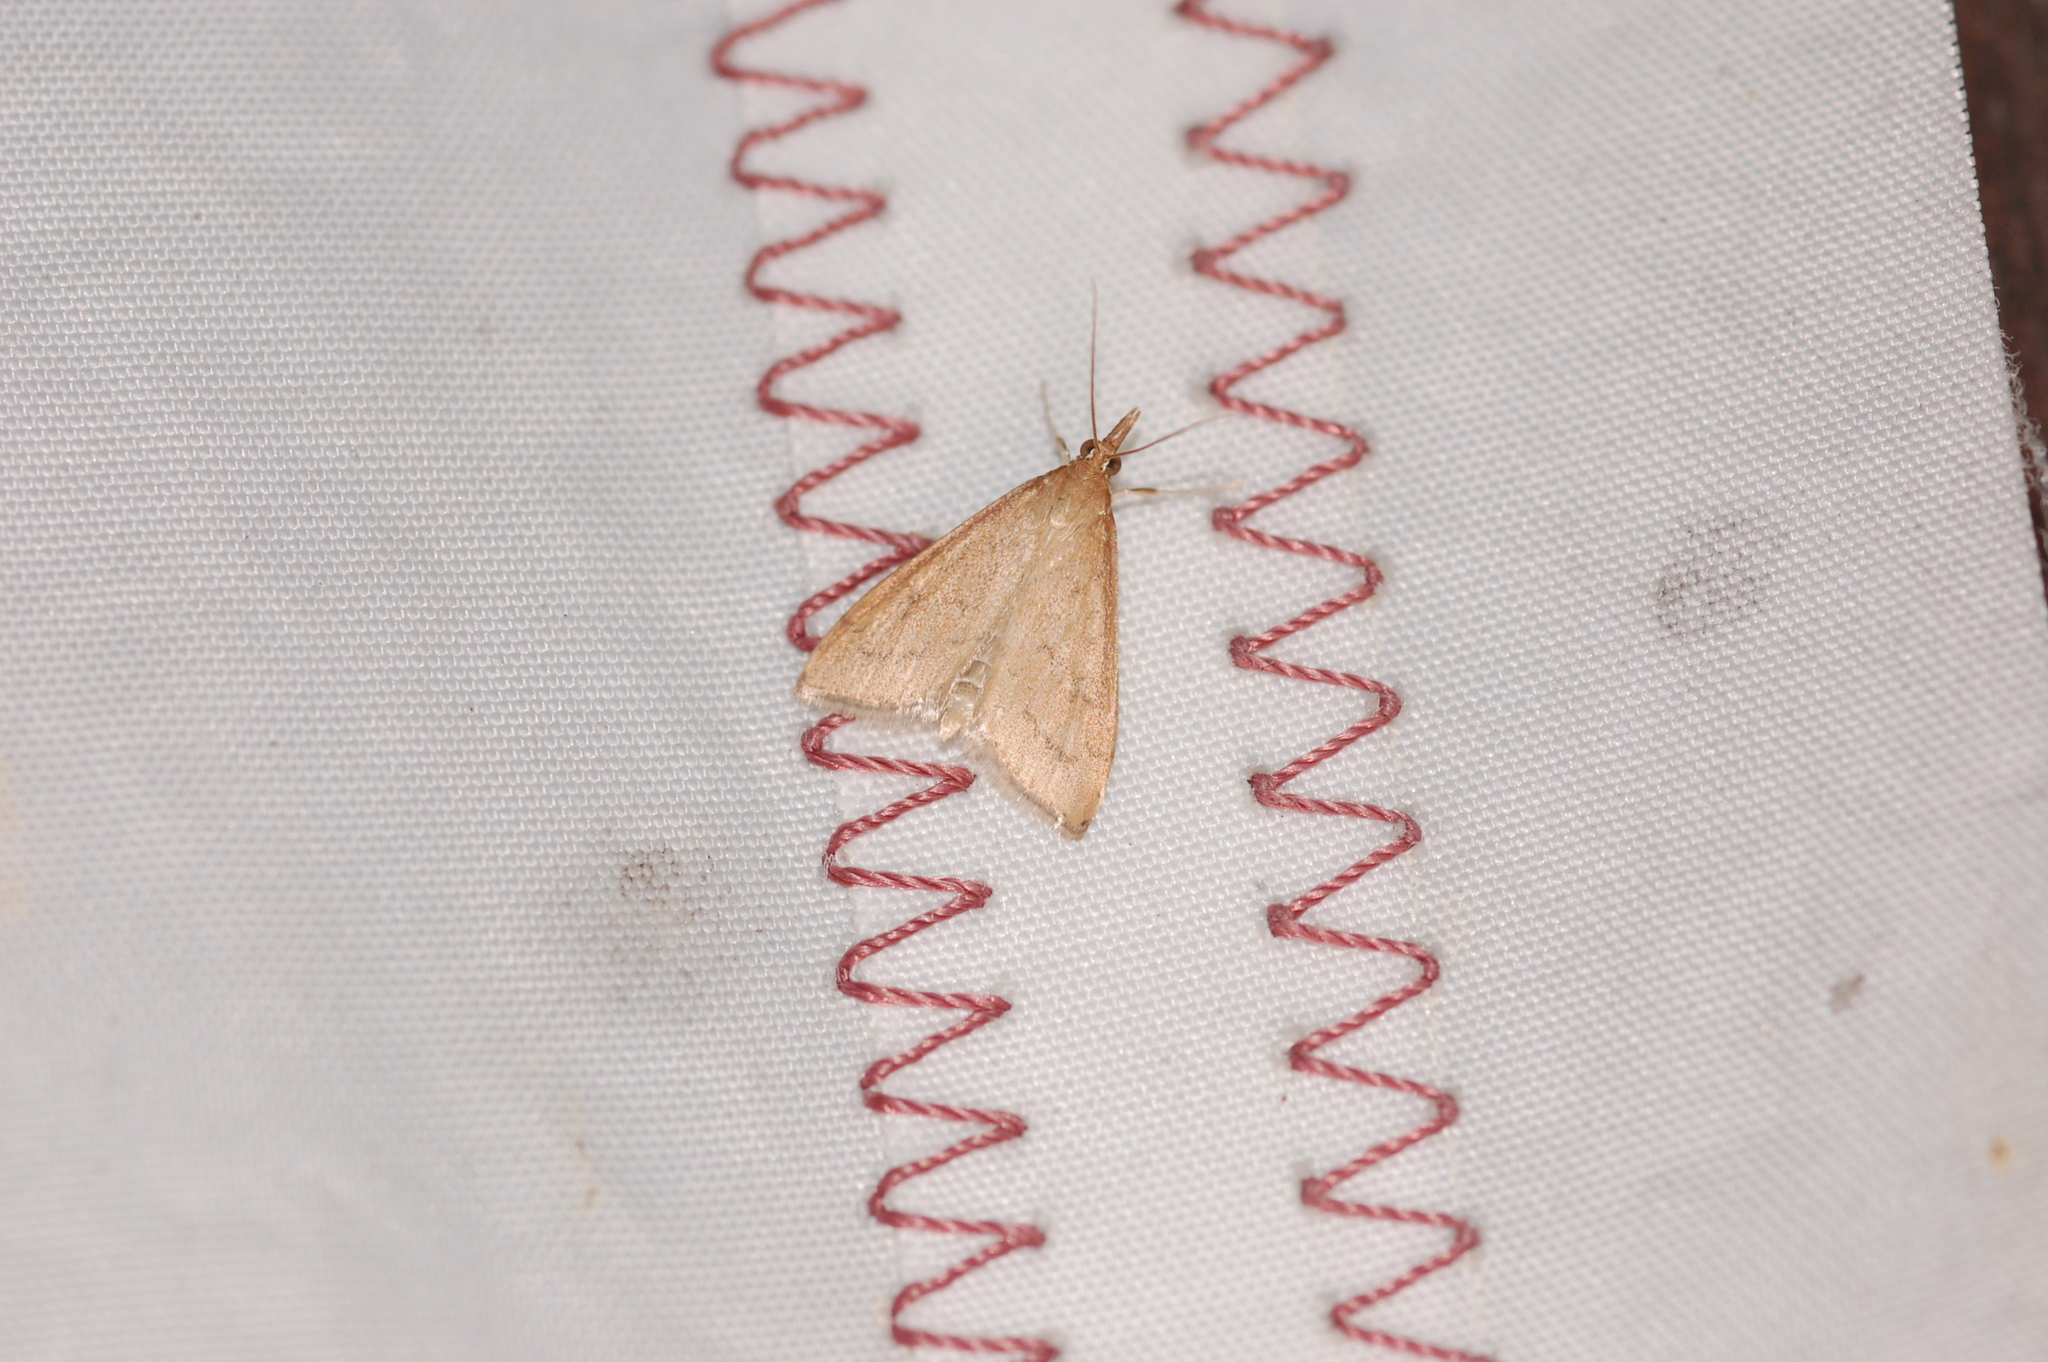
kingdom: Animalia
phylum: Arthropoda
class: Insecta
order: Lepidoptera
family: Crambidae
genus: Udea
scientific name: Udea rubigalis
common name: Celery leaftier moth
